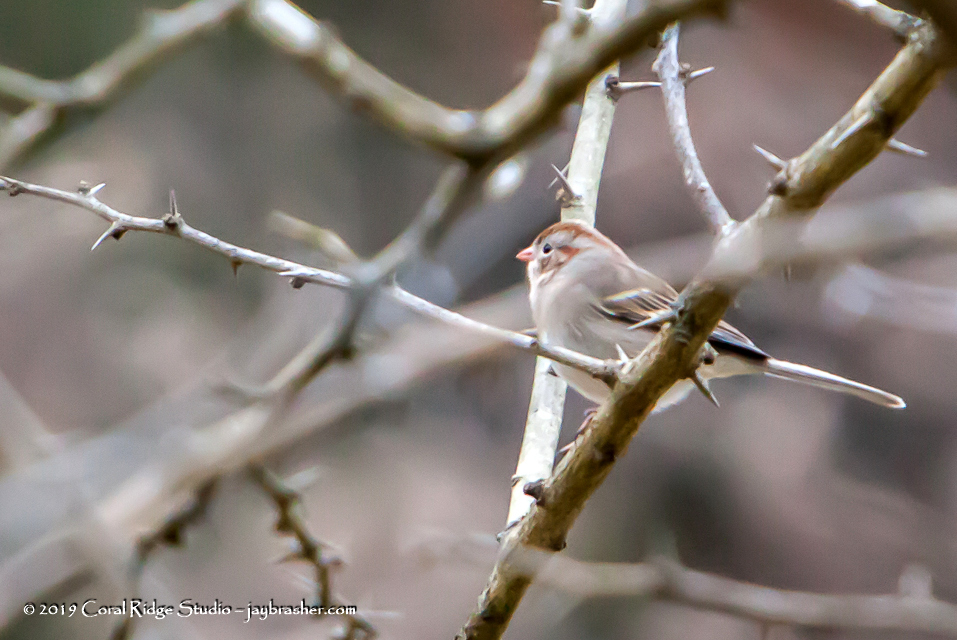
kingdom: Animalia
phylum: Chordata
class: Aves
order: Passeriformes
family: Passerellidae
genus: Spizella
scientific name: Spizella pusilla
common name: Field sparrow
